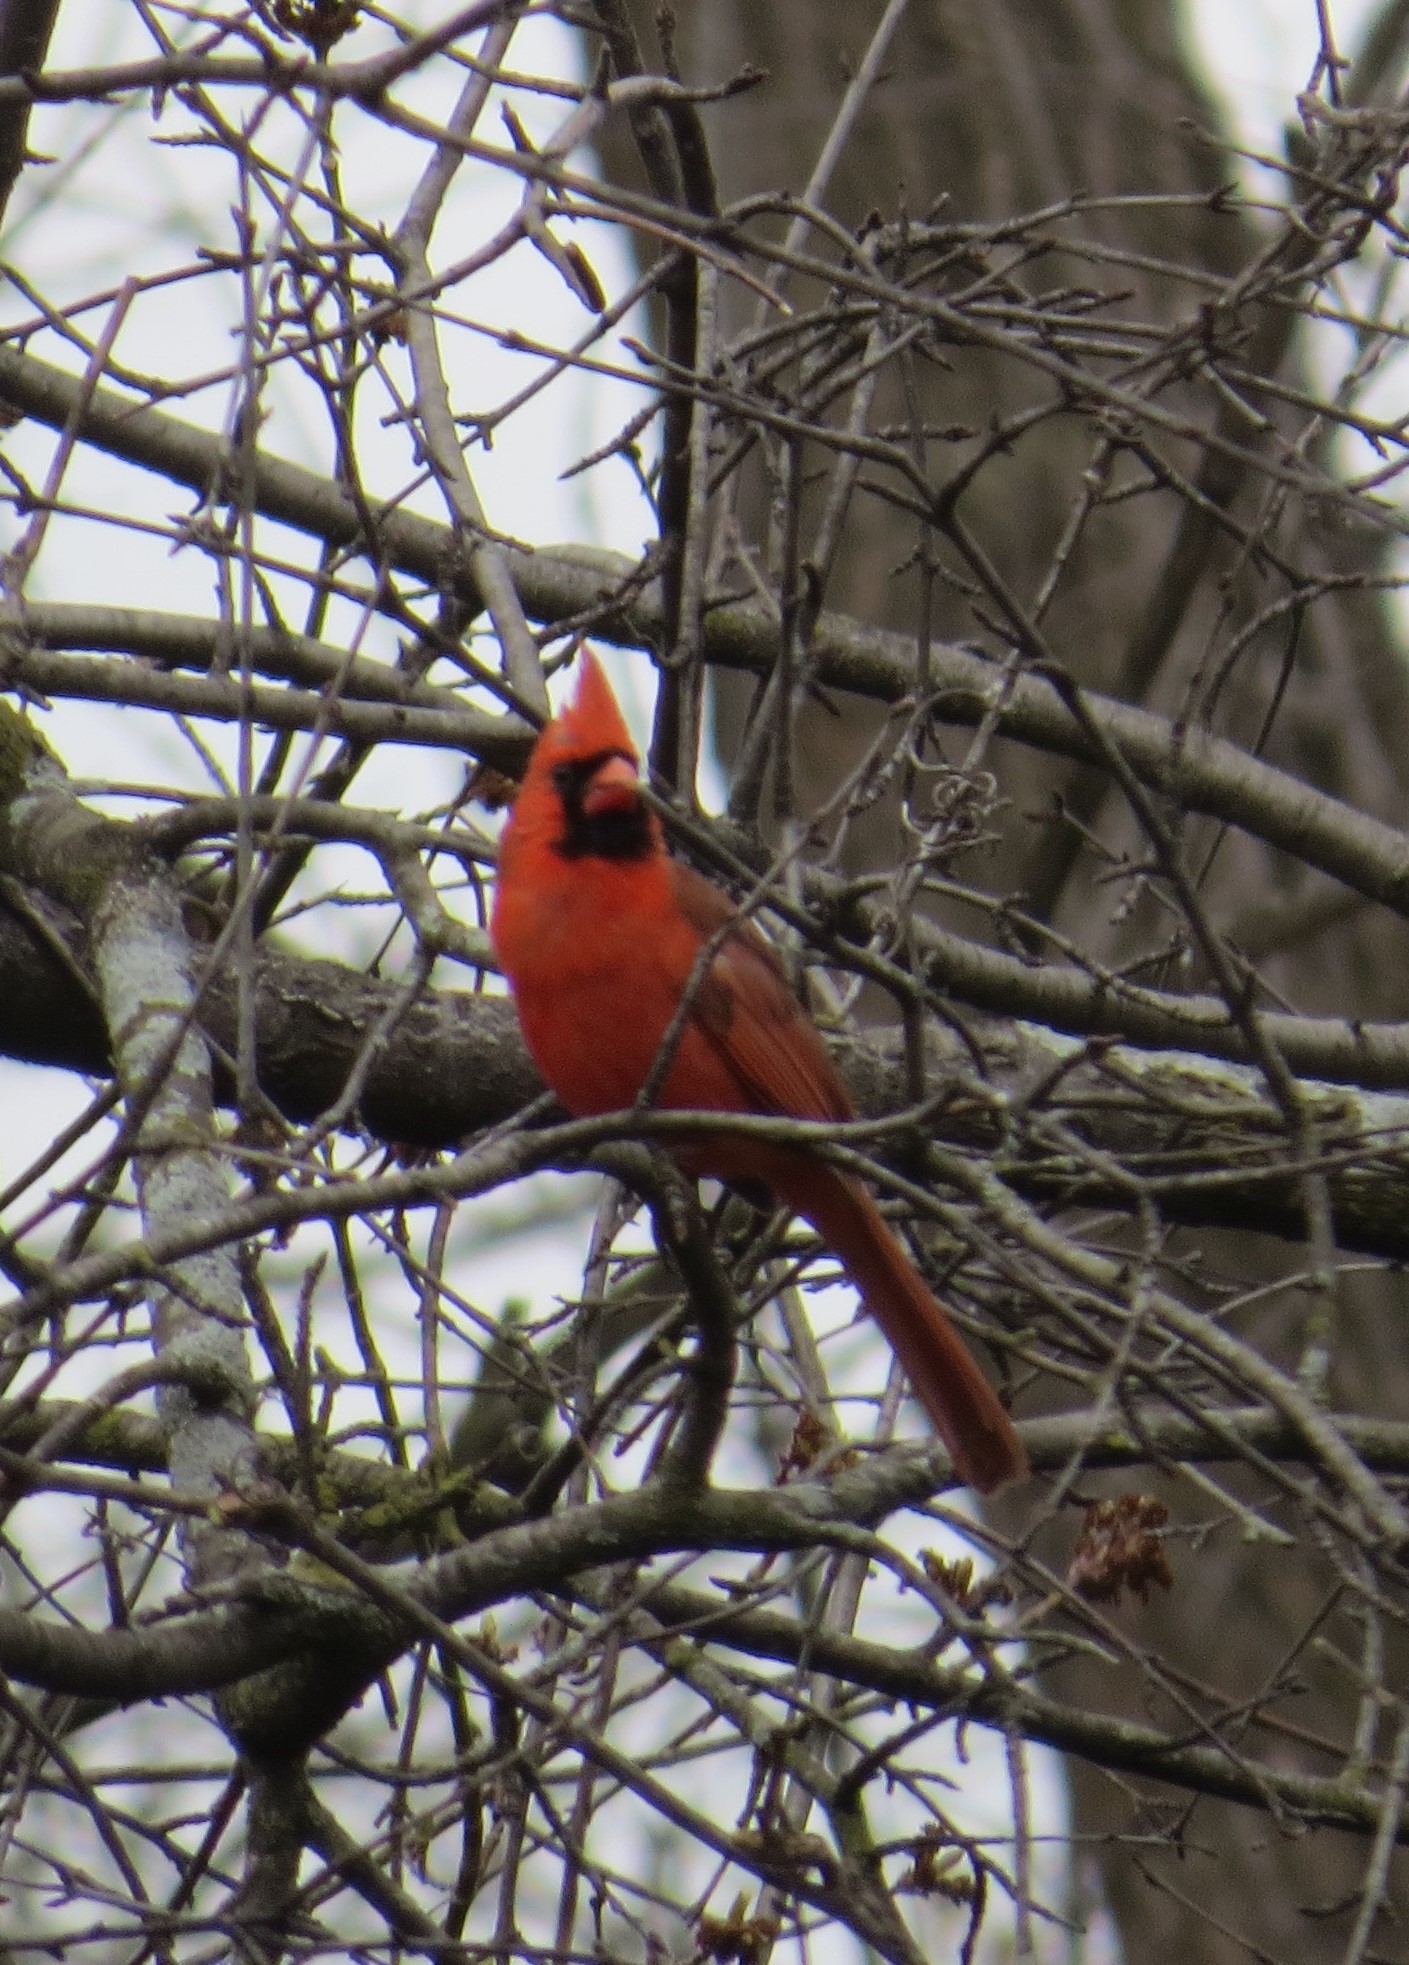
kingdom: Animalia
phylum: Chordata
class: Aves
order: Passeriformes
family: Cardinalidae
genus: Cardinalis
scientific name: Cardinalis cardinalis
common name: Northern cardinal
